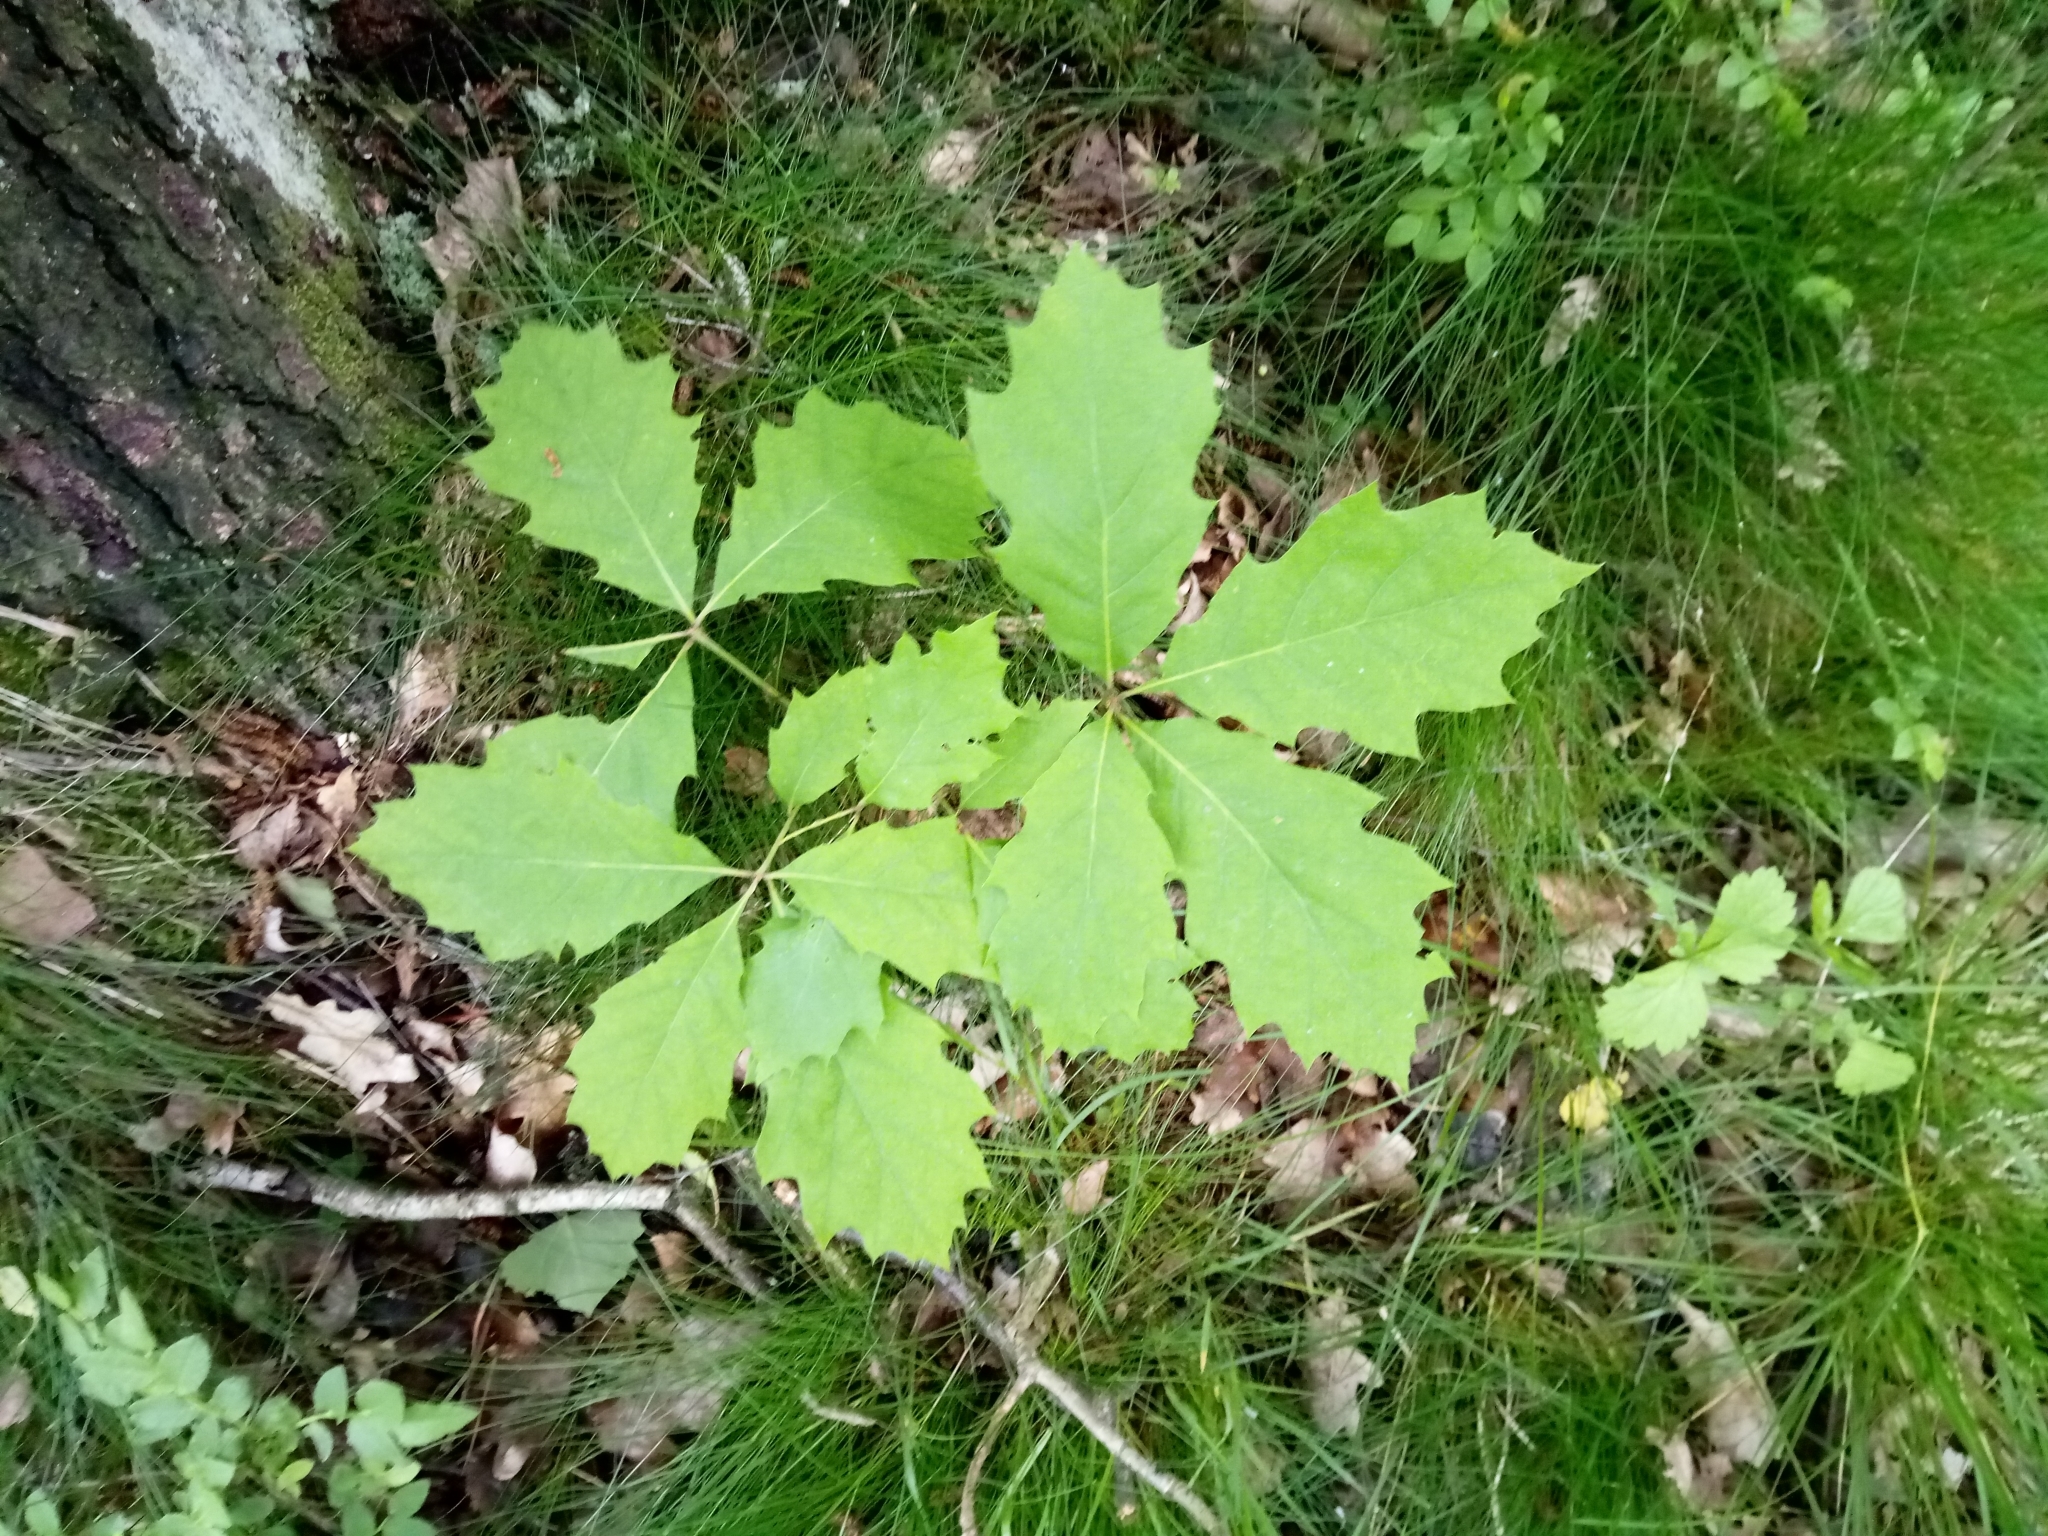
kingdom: Plantae
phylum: Tracheophyta
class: Magnoliopsida
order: Fagales
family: Fagaceae
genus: Quercus
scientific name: Quercus rubra
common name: Red oak
